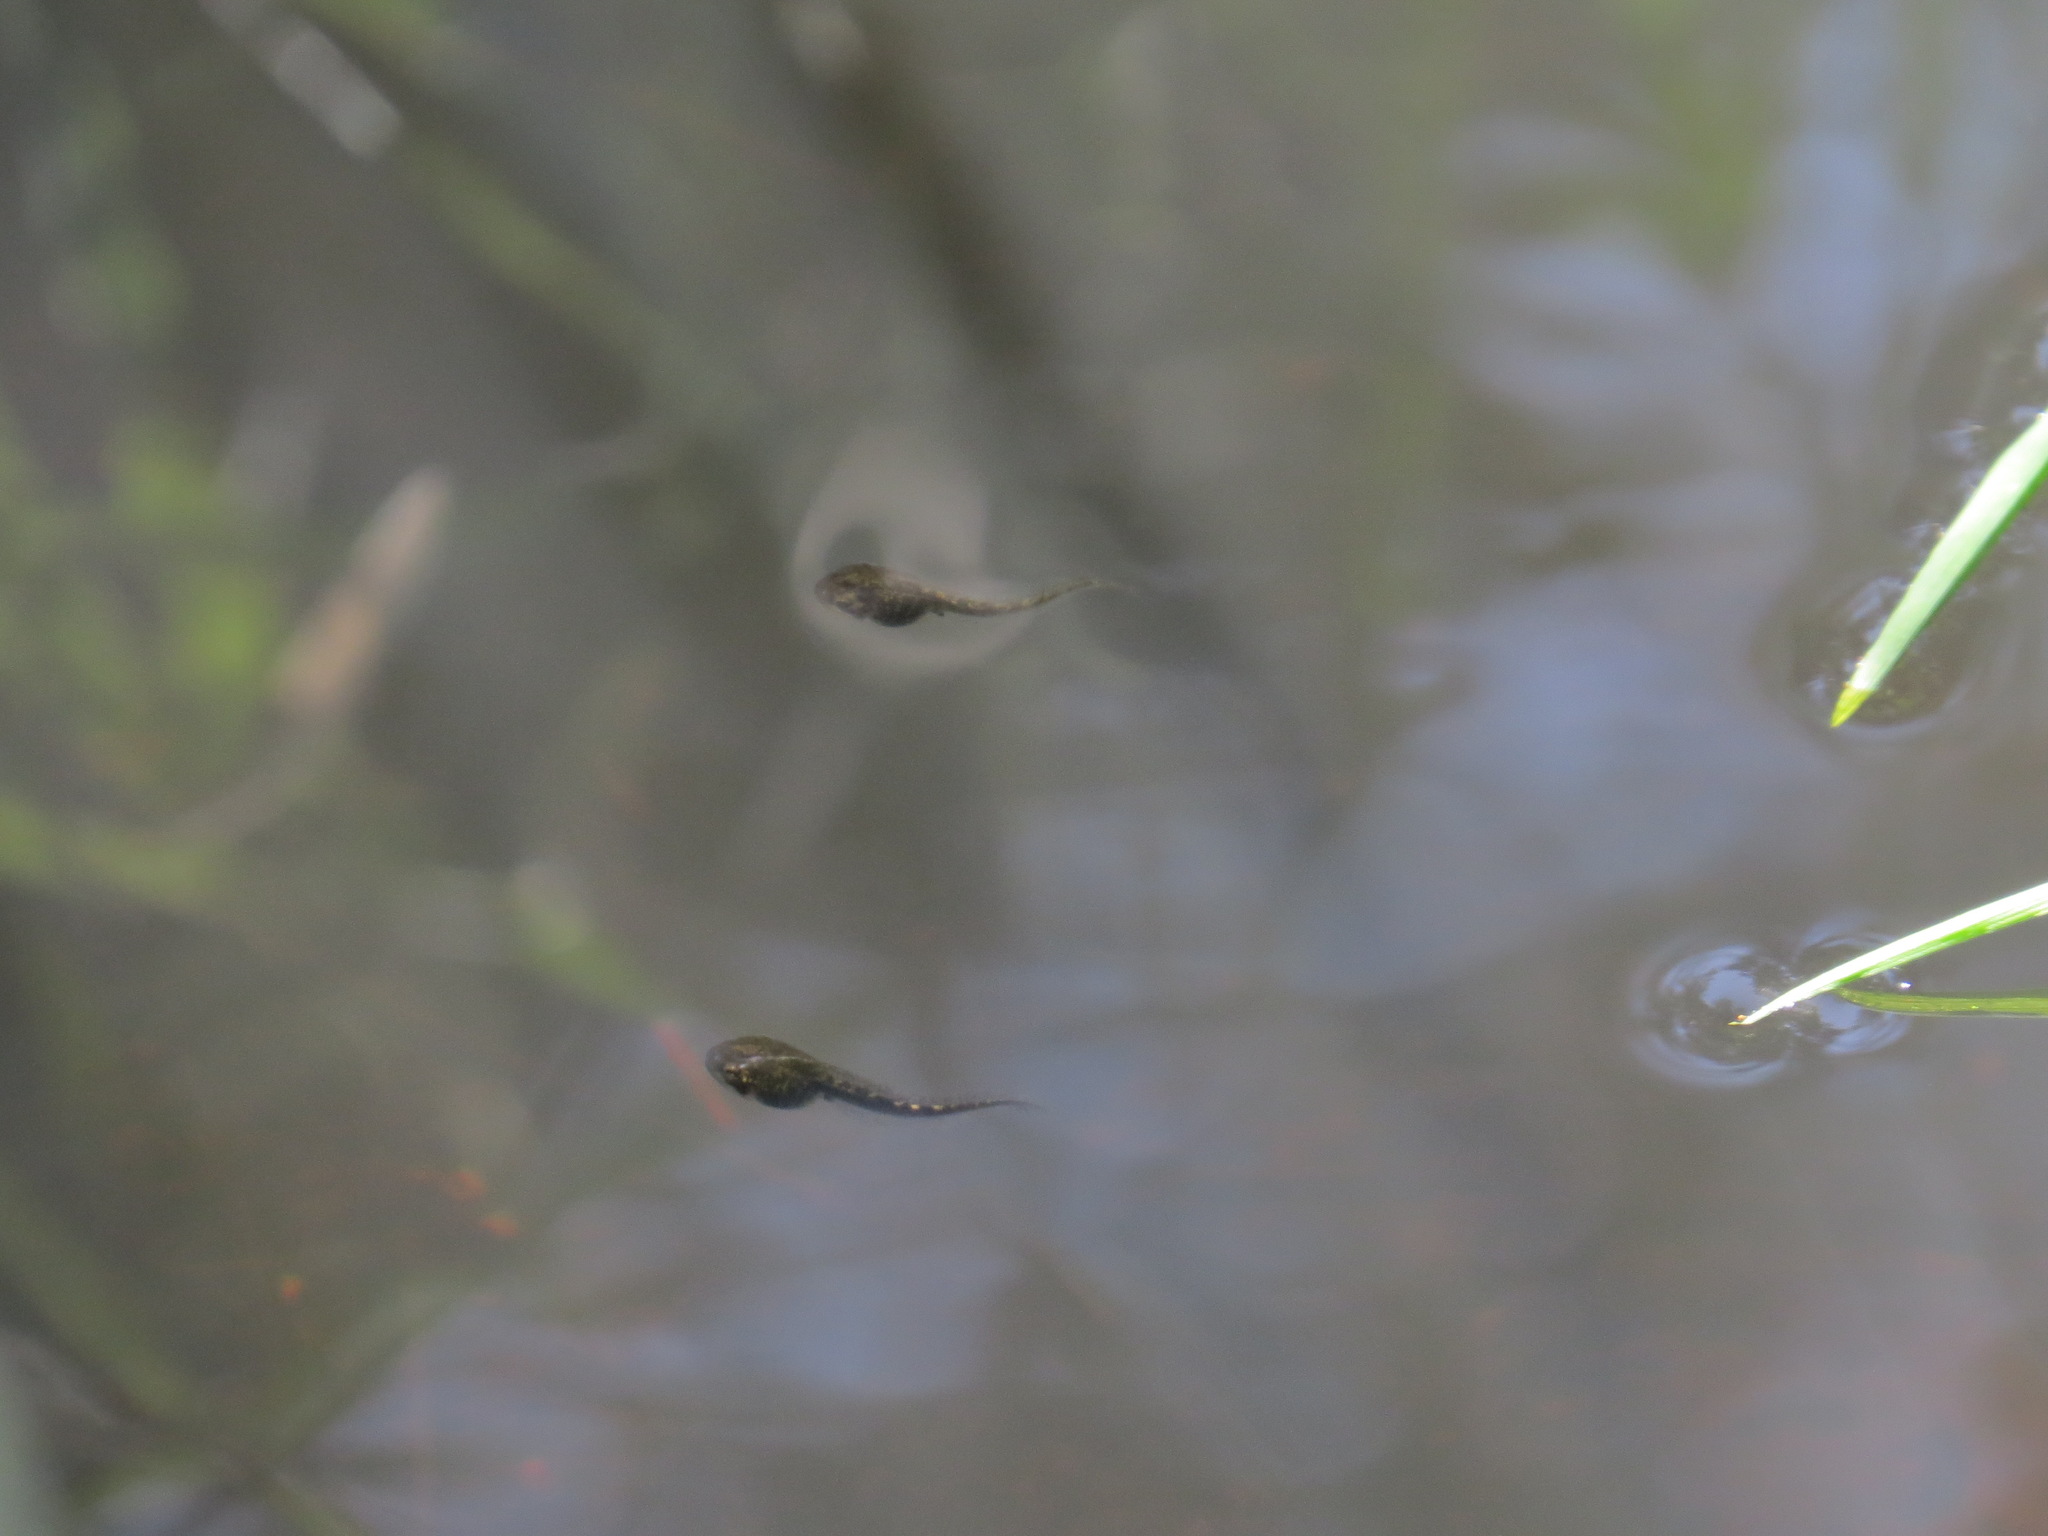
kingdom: Animalia
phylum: Chordata
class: Amphibia
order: Anura
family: Hylidae
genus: Pseudacris
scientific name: Pseudacris regilla
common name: Pacific chorus frog
